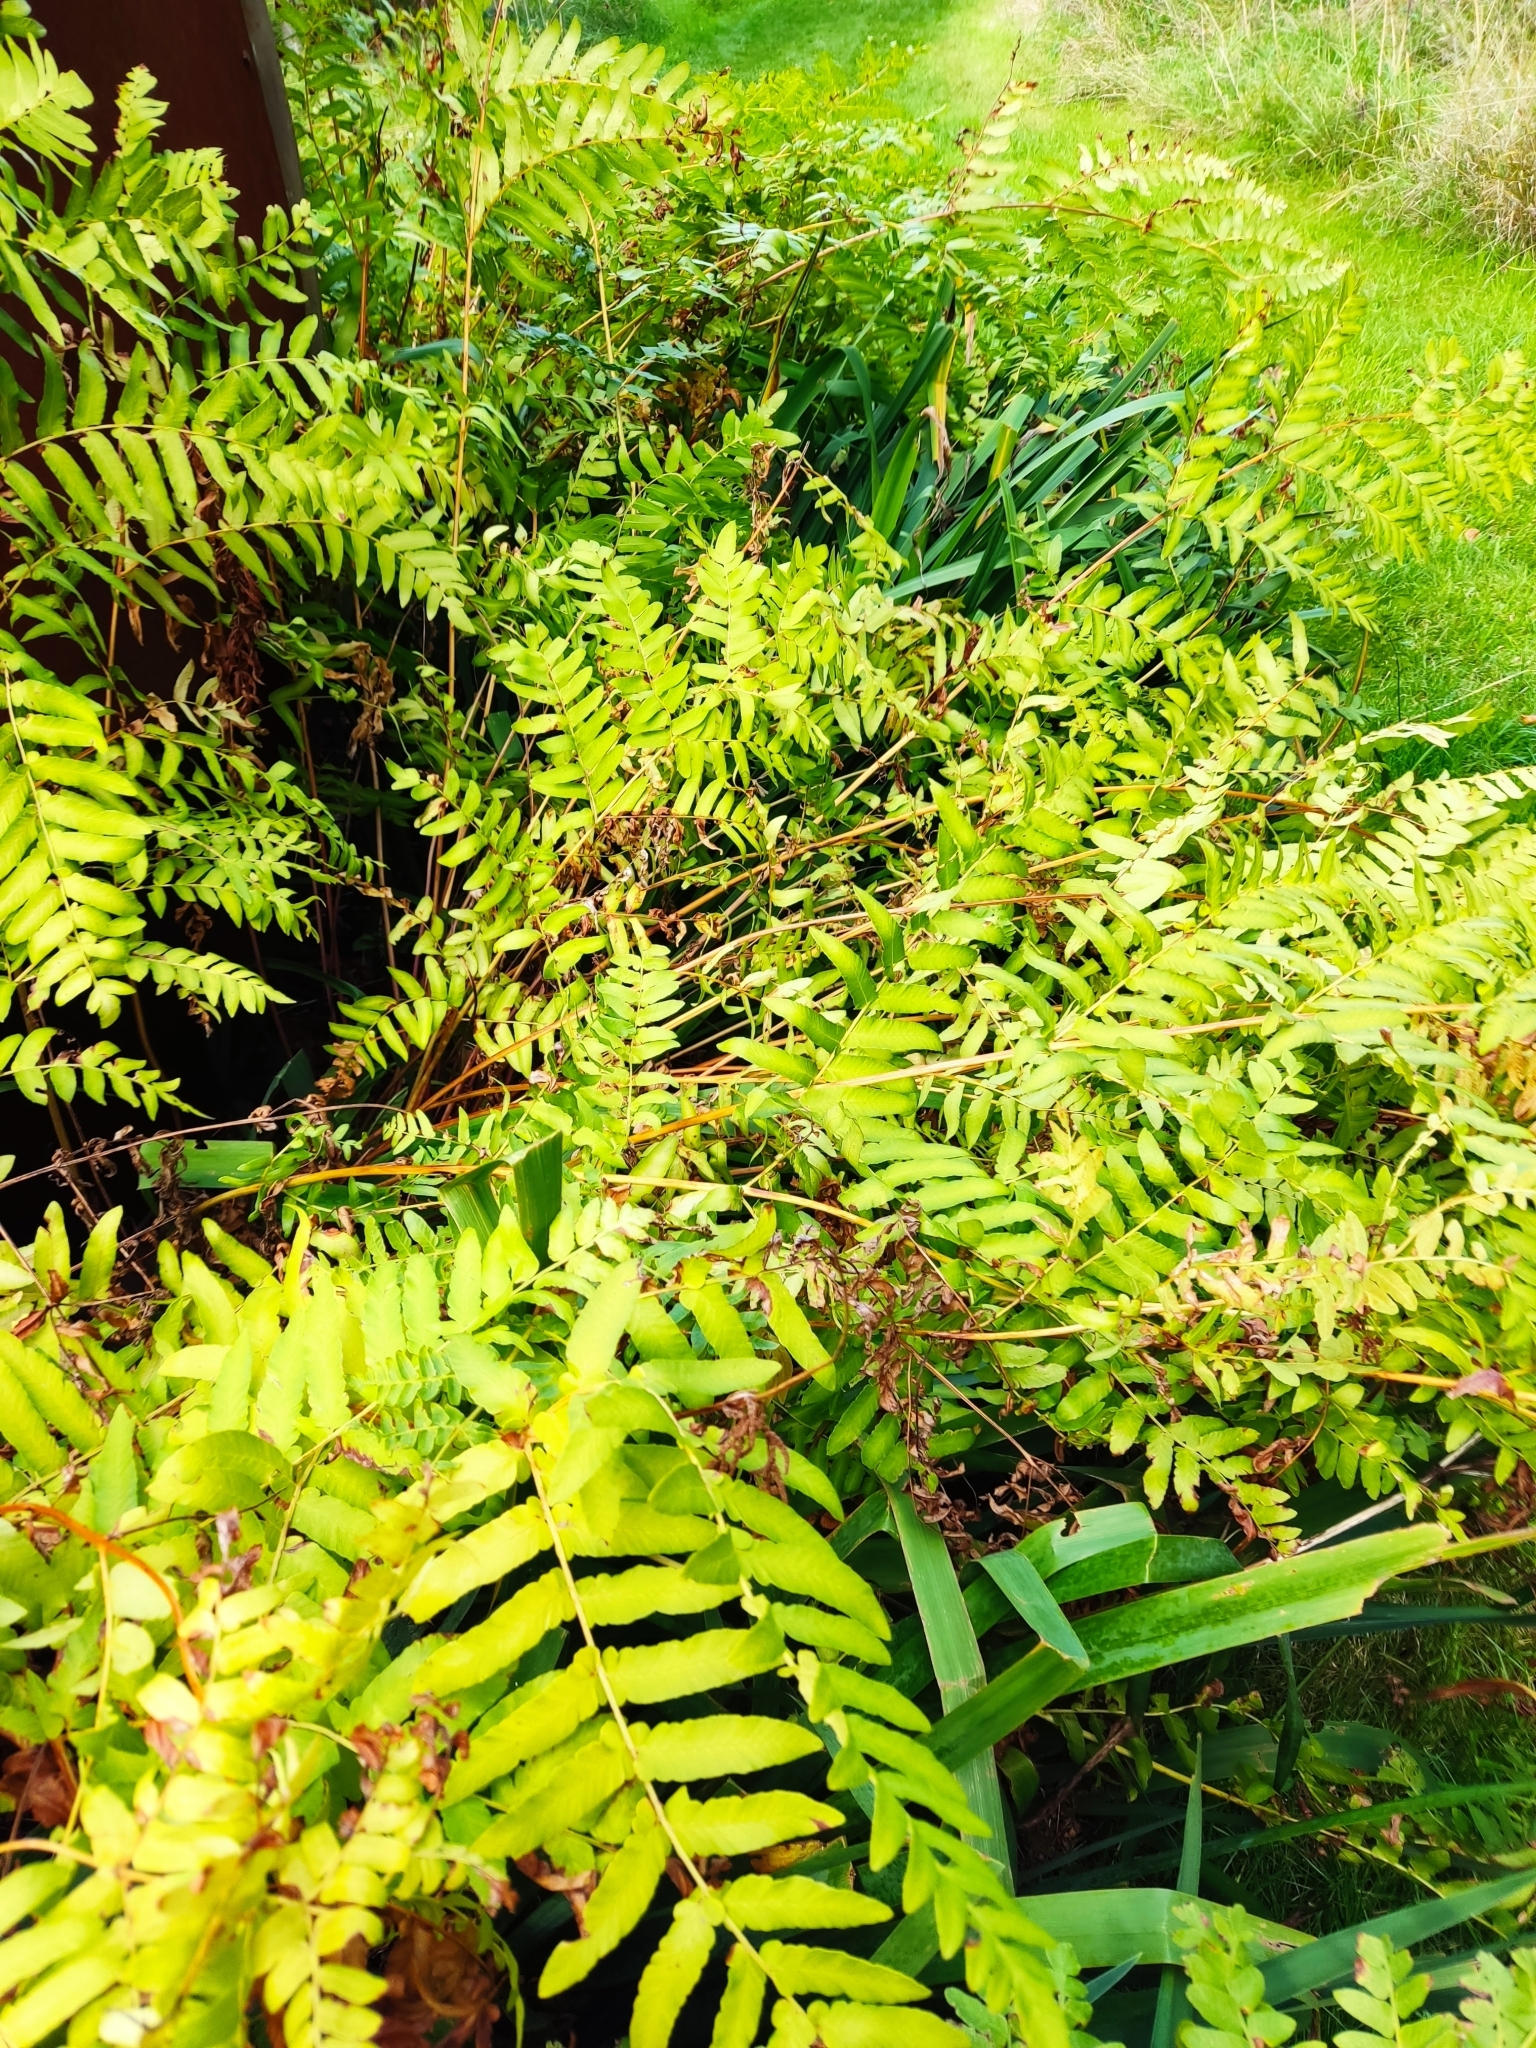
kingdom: Plantae
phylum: Tracheophyta
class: Polypodiopsida
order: Osmundales
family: Osmundaceae
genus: Osmunda
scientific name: Osmunda regalis
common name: Royal fern
